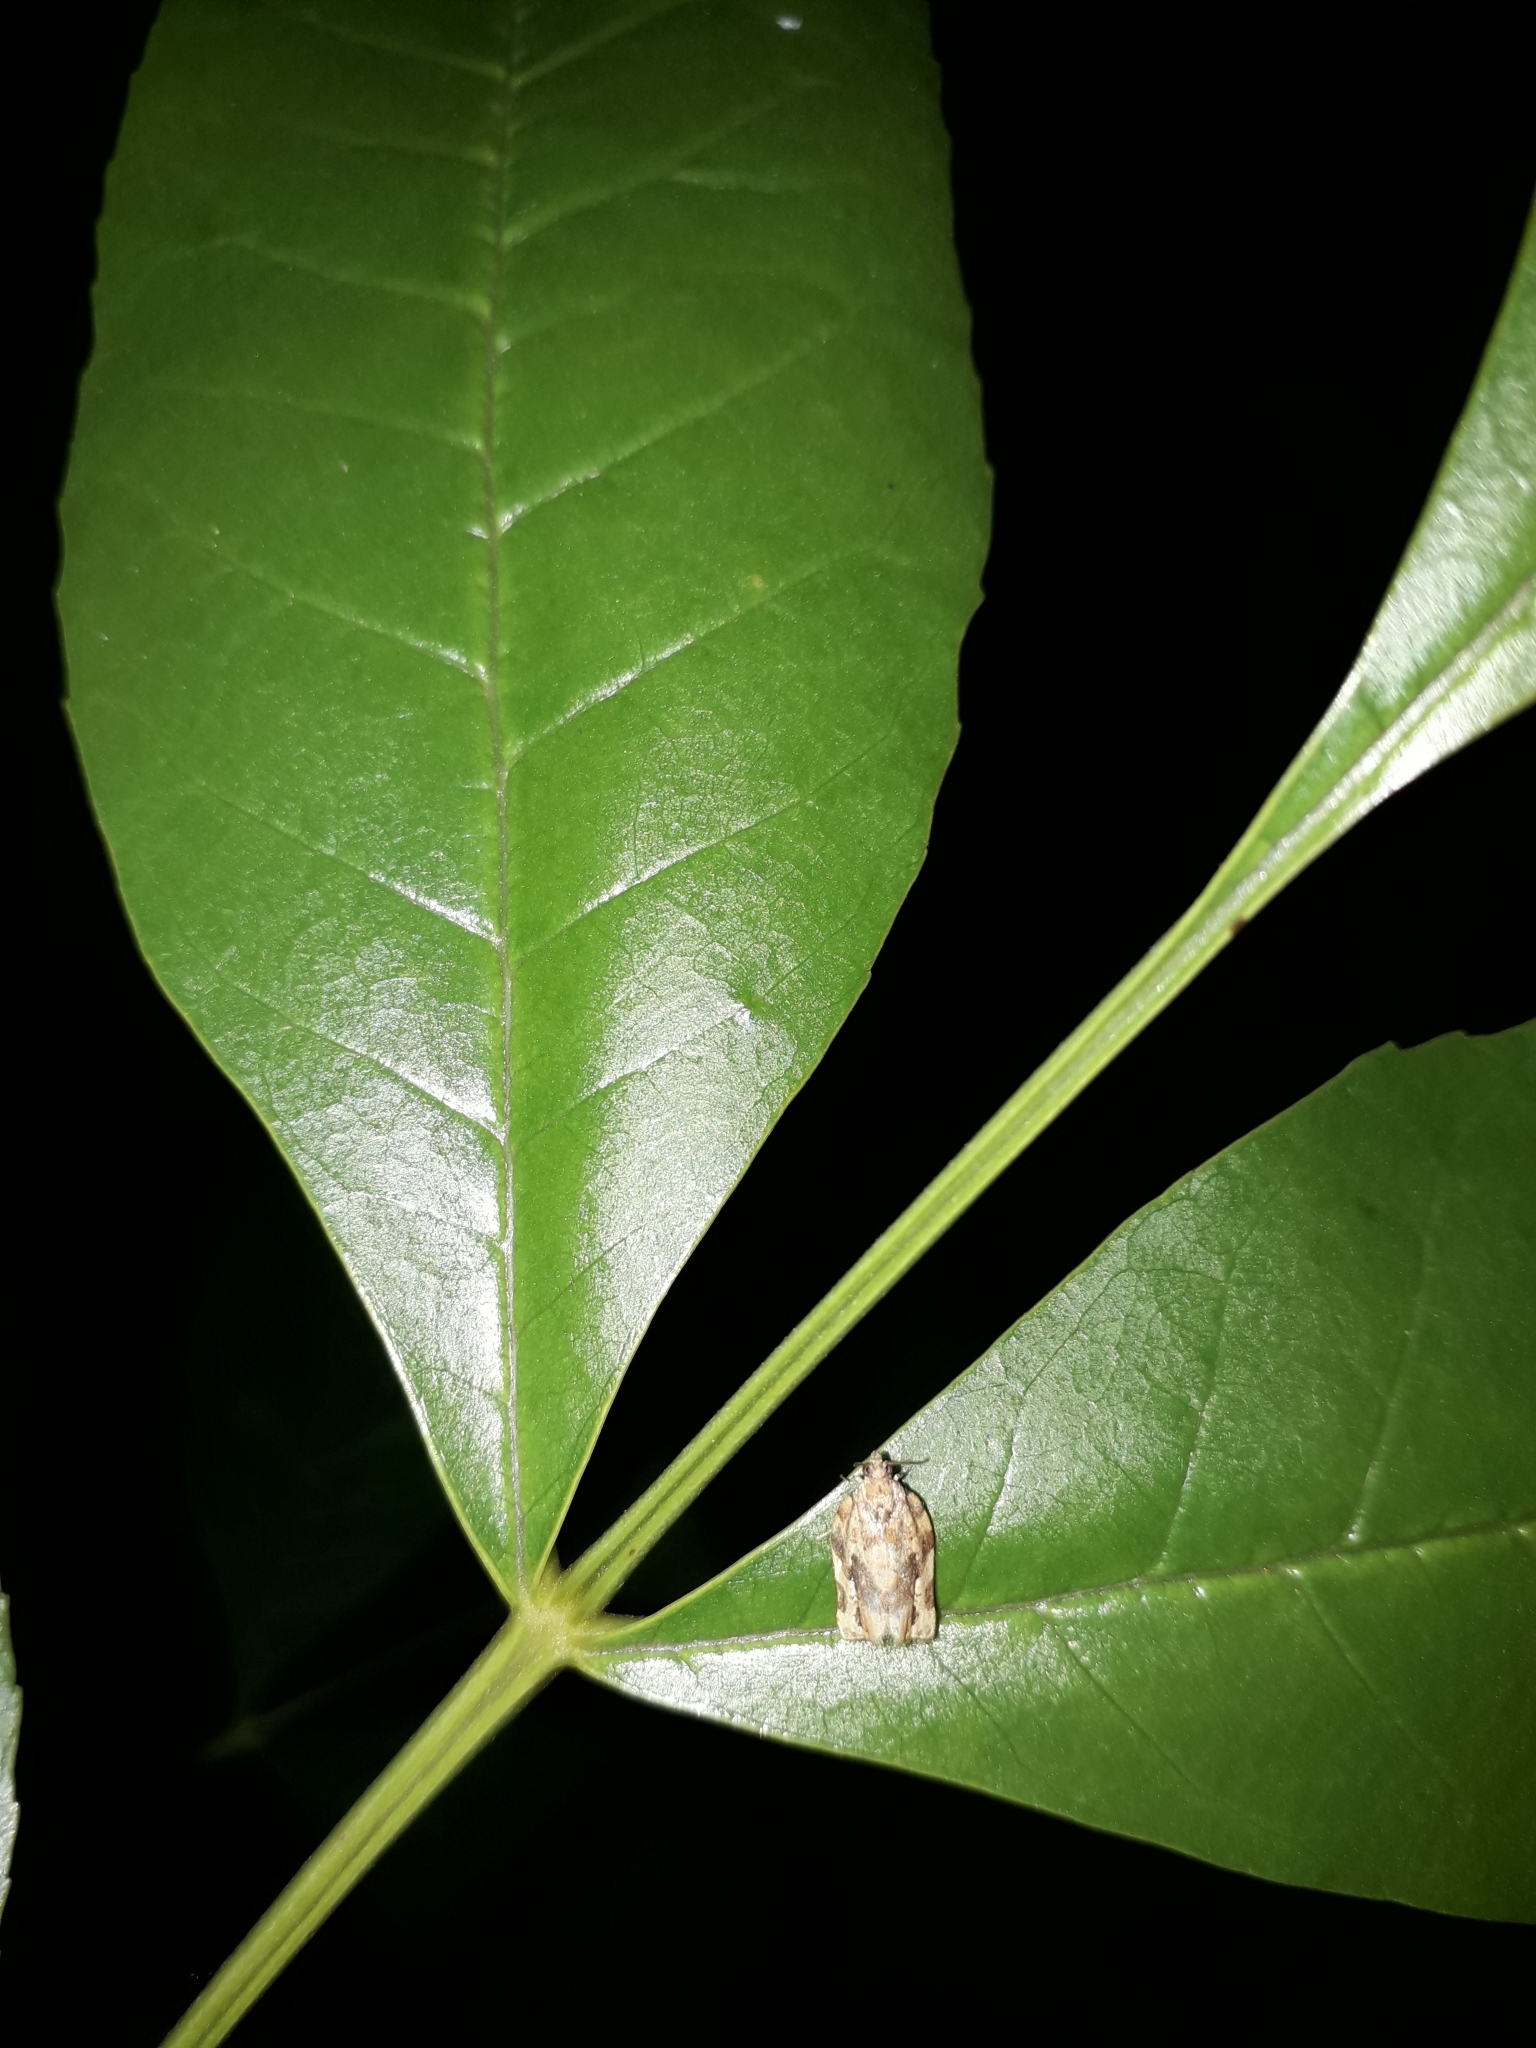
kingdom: Animalia
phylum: Arthropoda
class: Insecta
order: Lepidoptera
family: Tortricidae
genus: Argyrotaenia
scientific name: Argyrotaenia sphaleropa
